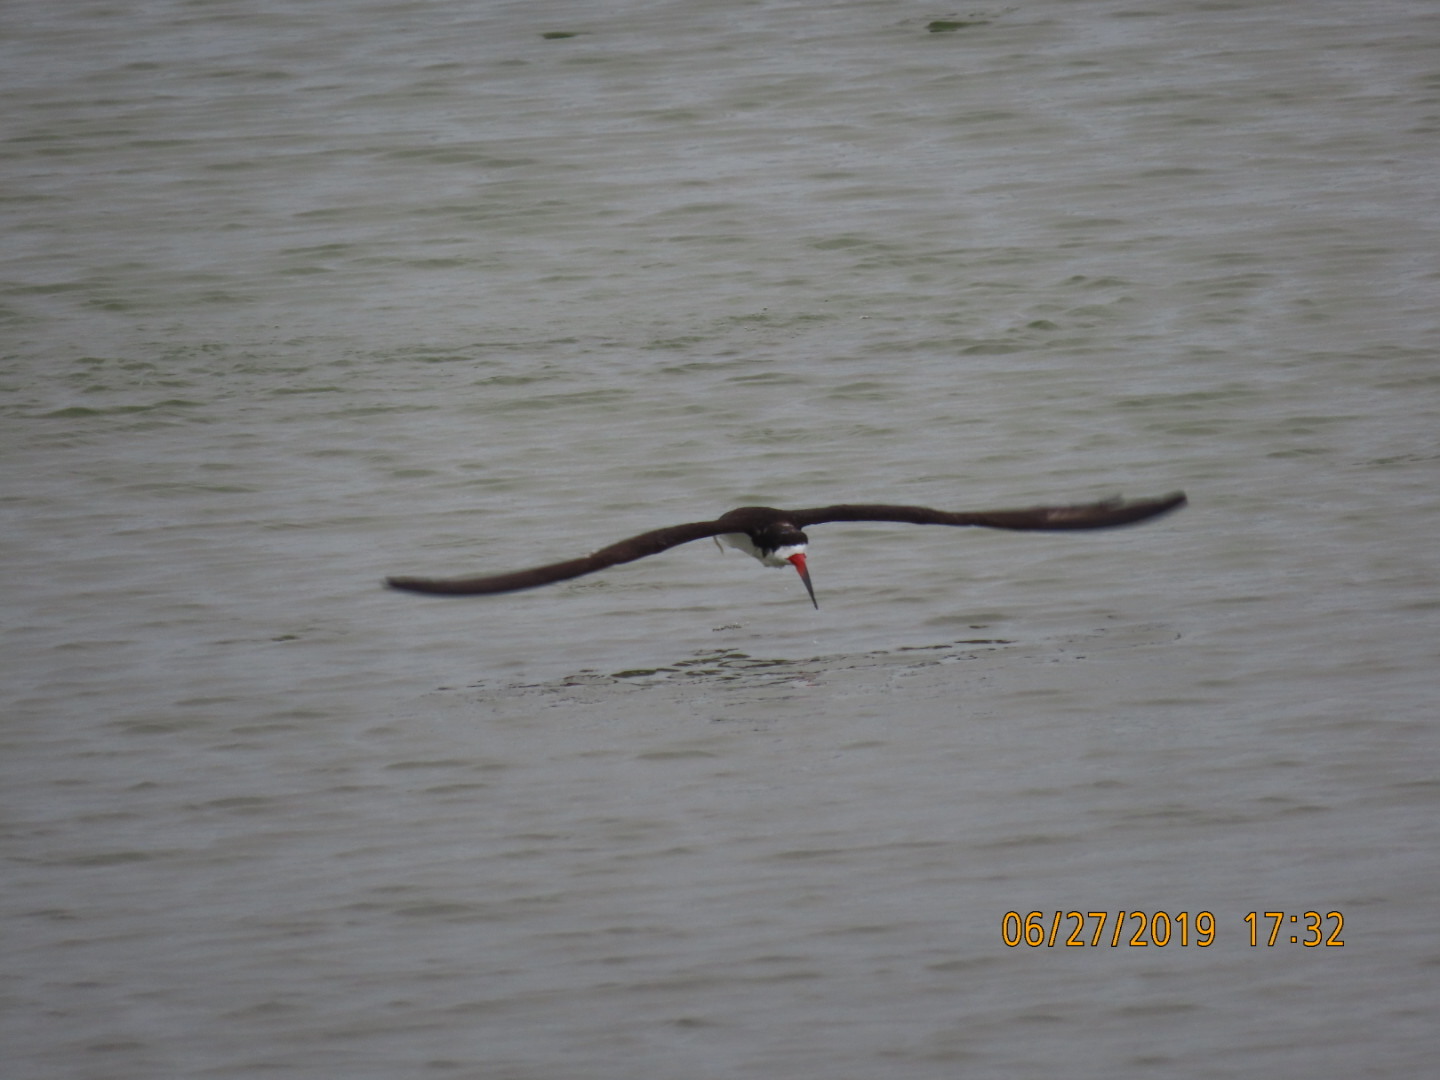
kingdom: Animalia
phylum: Chordata
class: Aves
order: Charadriiformes
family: Laridae
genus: Rynchops
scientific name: Rynchops niger
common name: Black skimmer
